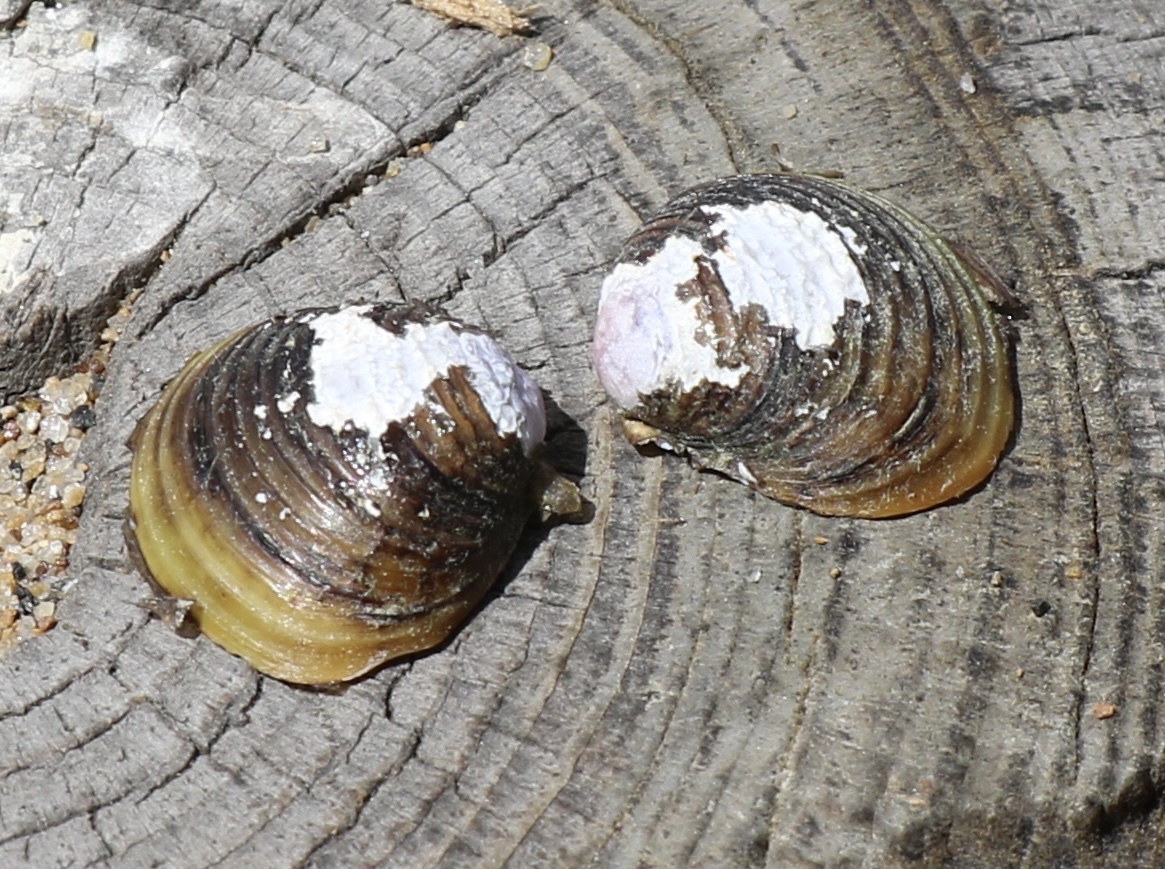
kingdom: Animalia
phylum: Mollusca
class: Bivalvia
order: Venerida
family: Cyrenidae
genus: Corbicula
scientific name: Corbicula fluminea
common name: Asian clam
